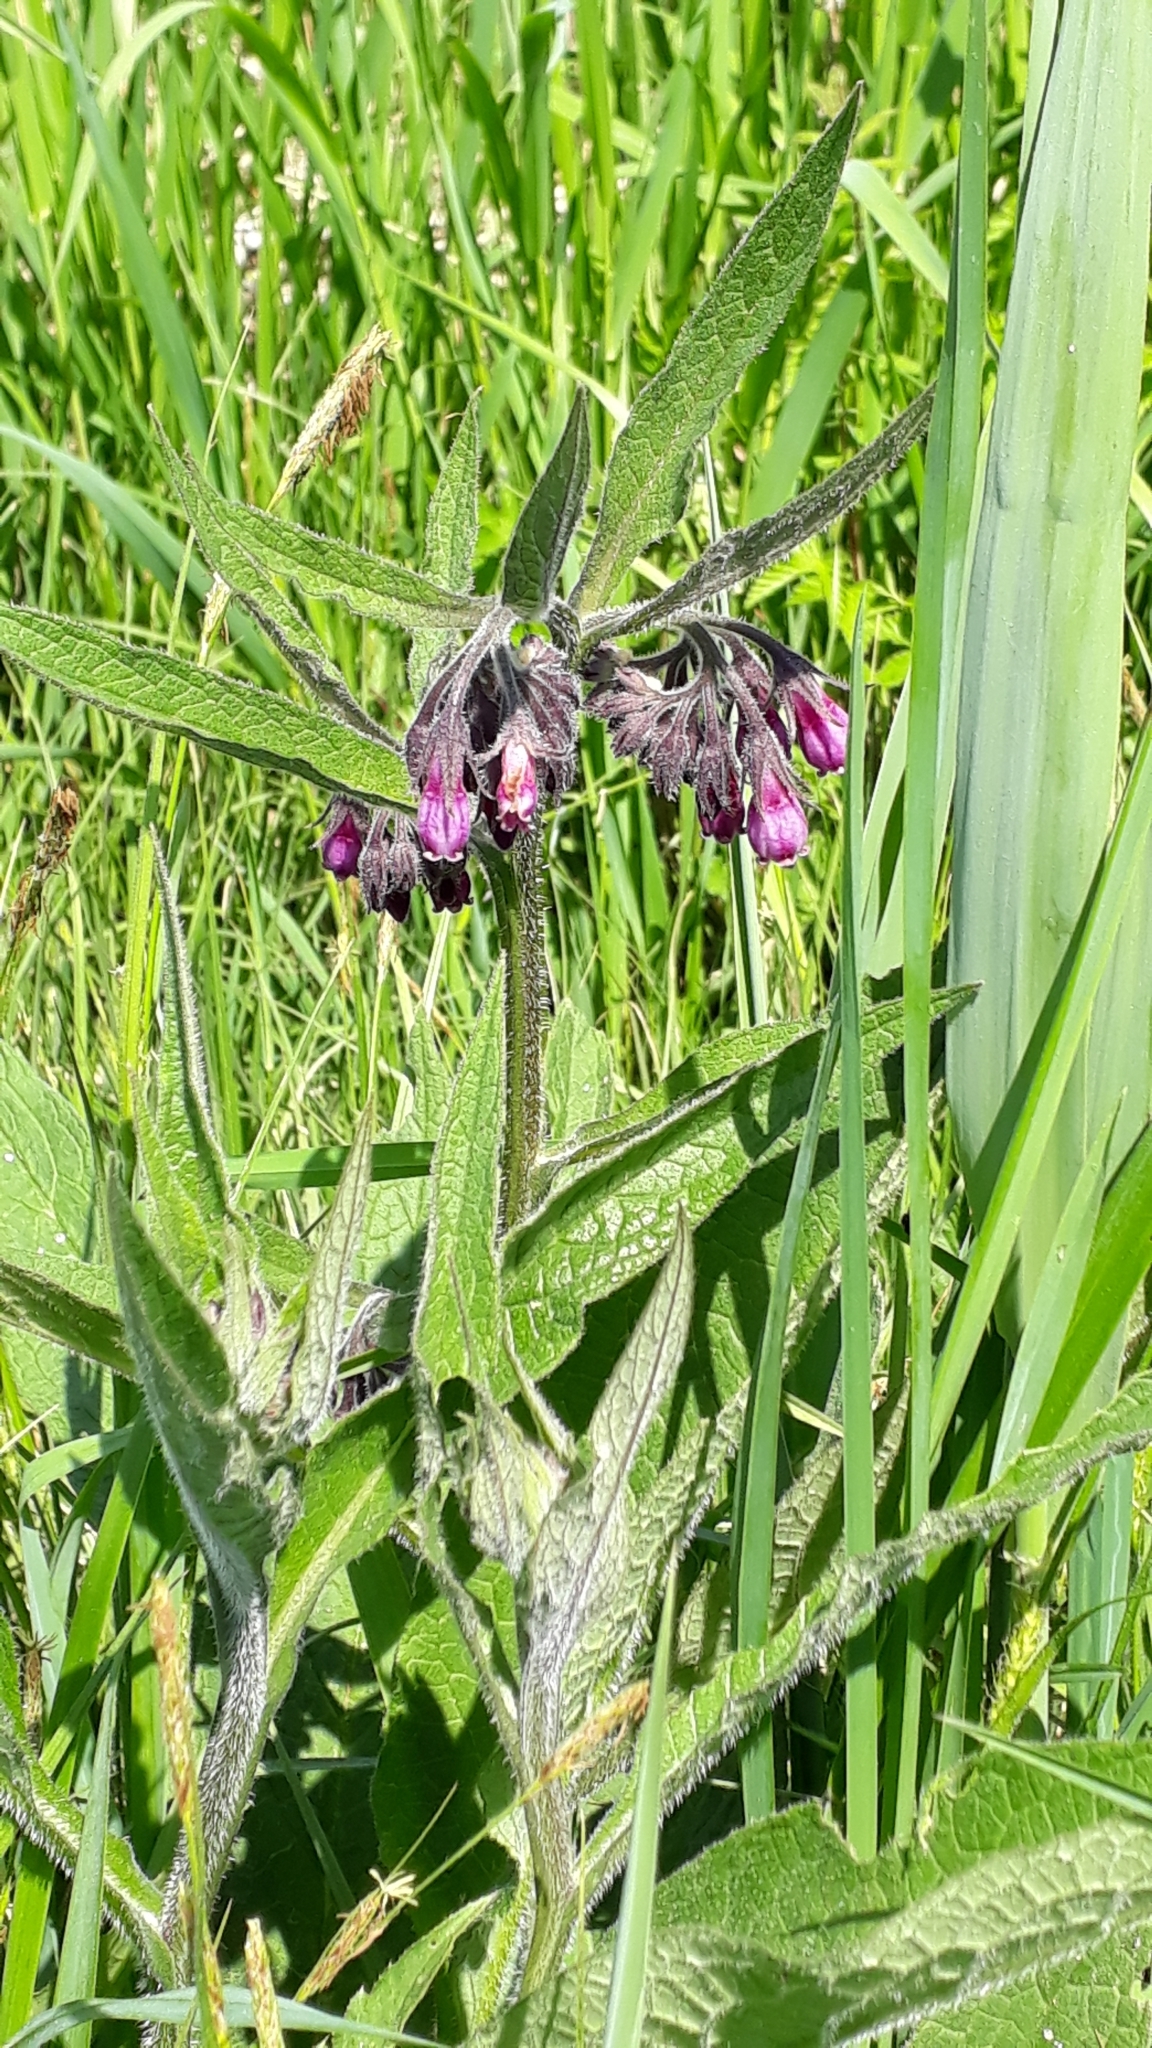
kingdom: Plantae
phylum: Tracheophyta
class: Magnoliopsida
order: Boraginales
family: Boraginaceae
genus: Symphytum
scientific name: Symphytum officinale
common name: Common comfrey
